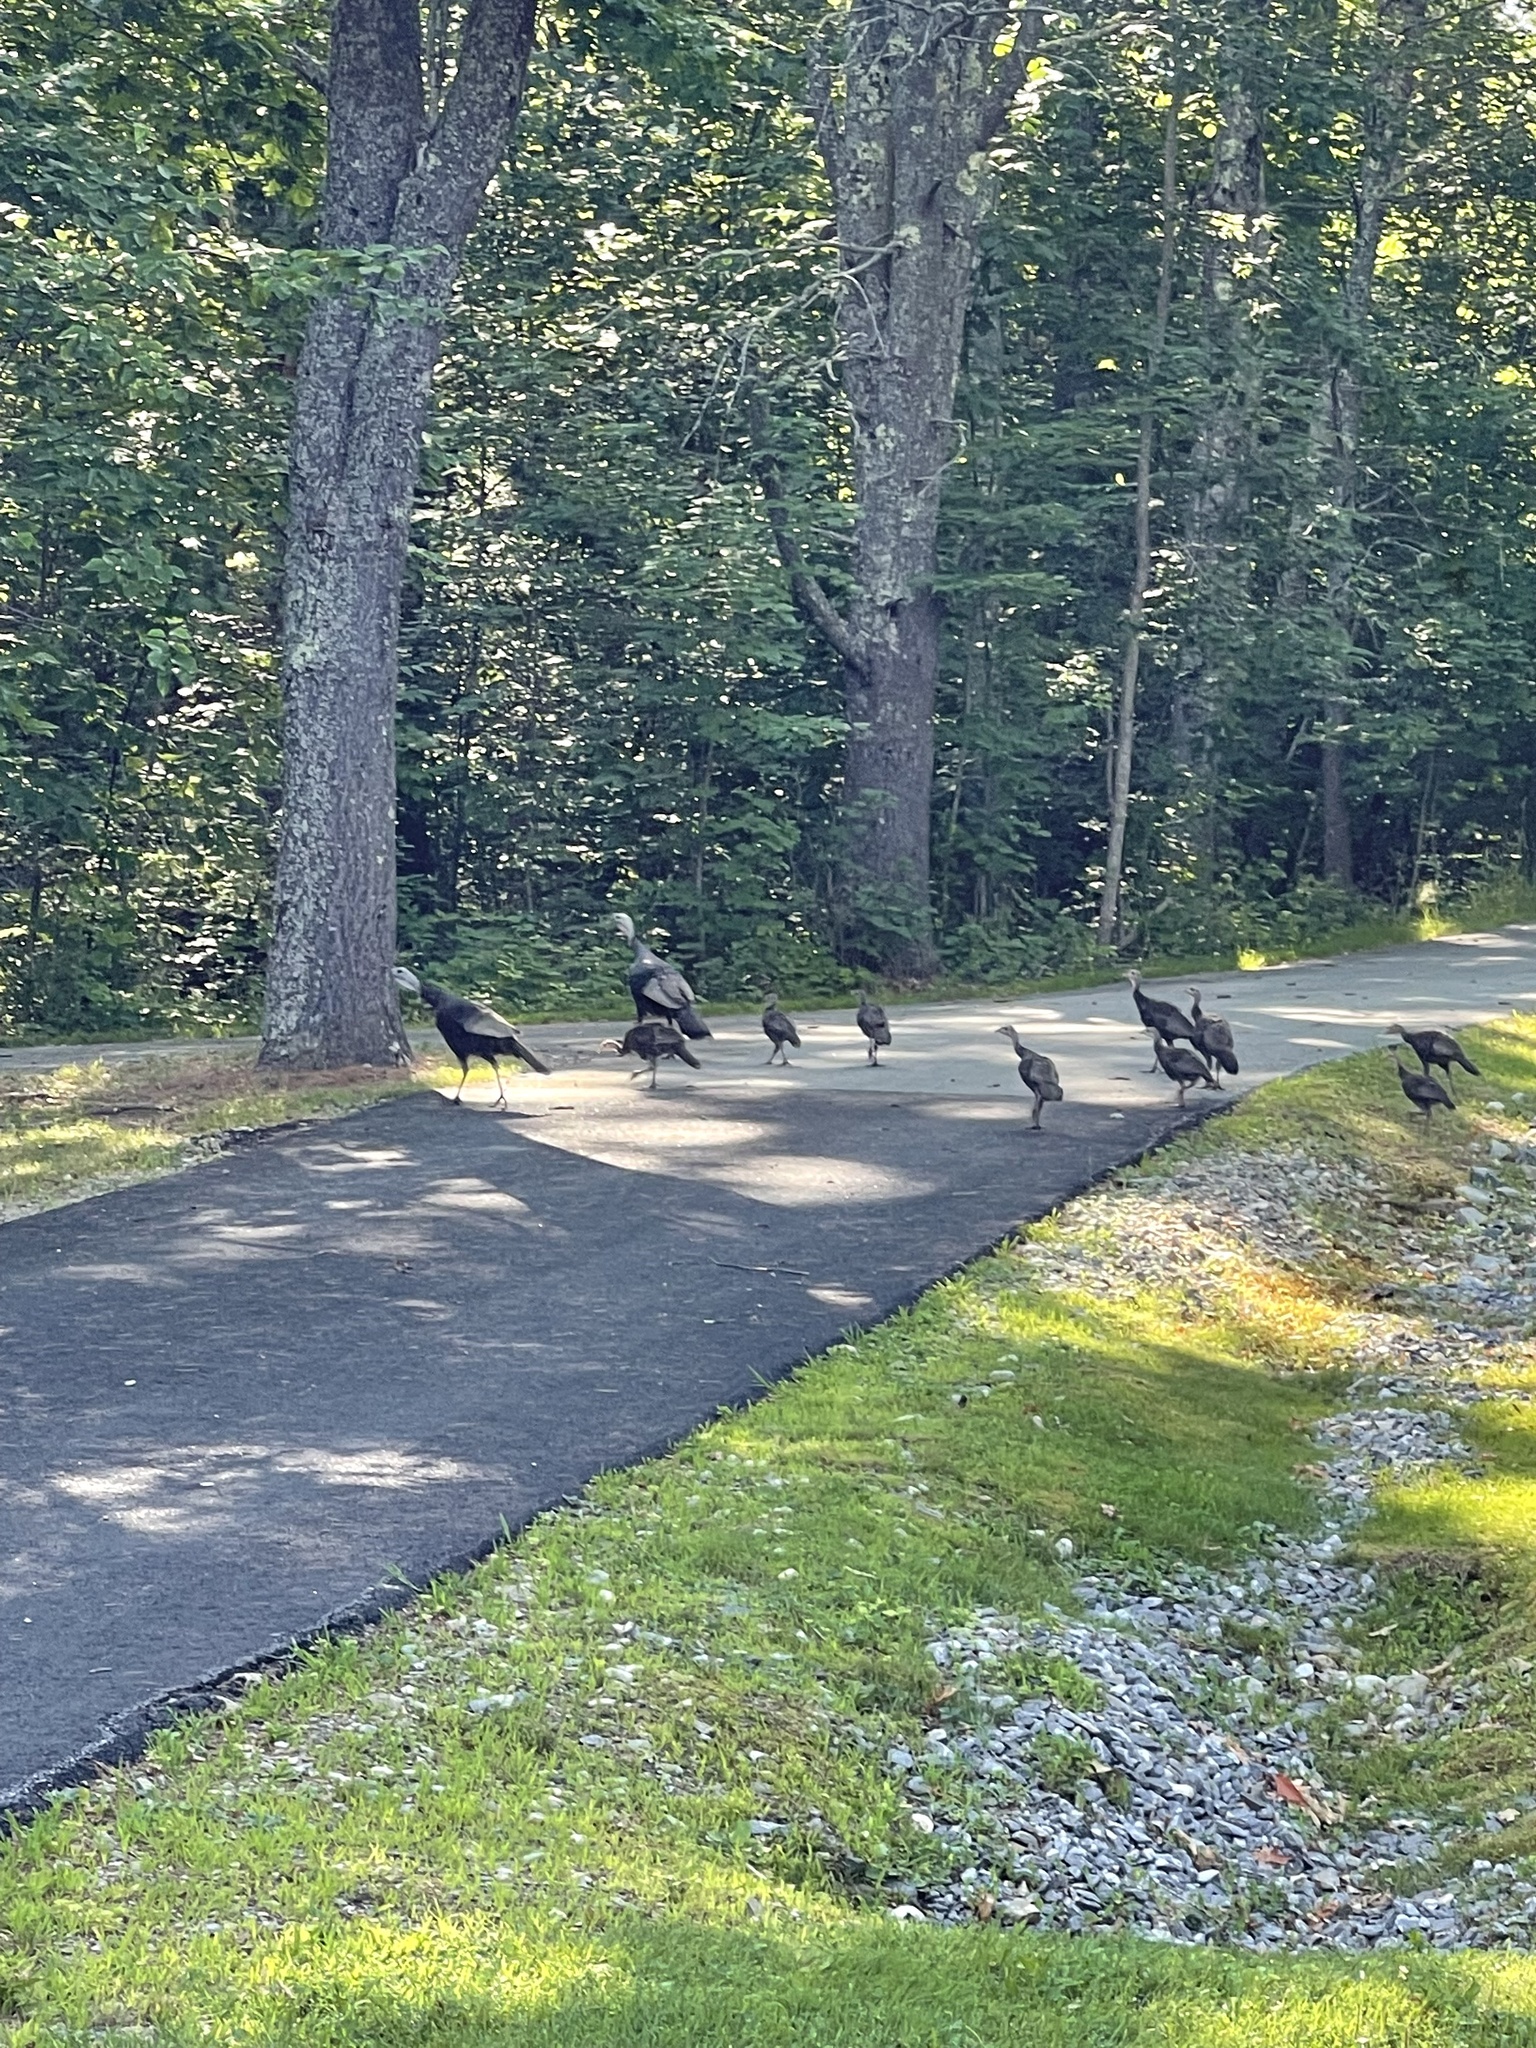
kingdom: Animalia
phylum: Chordata
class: Aves
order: Galliformes
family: Phasianidae
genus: Meleagris
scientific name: Meleagris gallopavo
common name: Wild turkey
